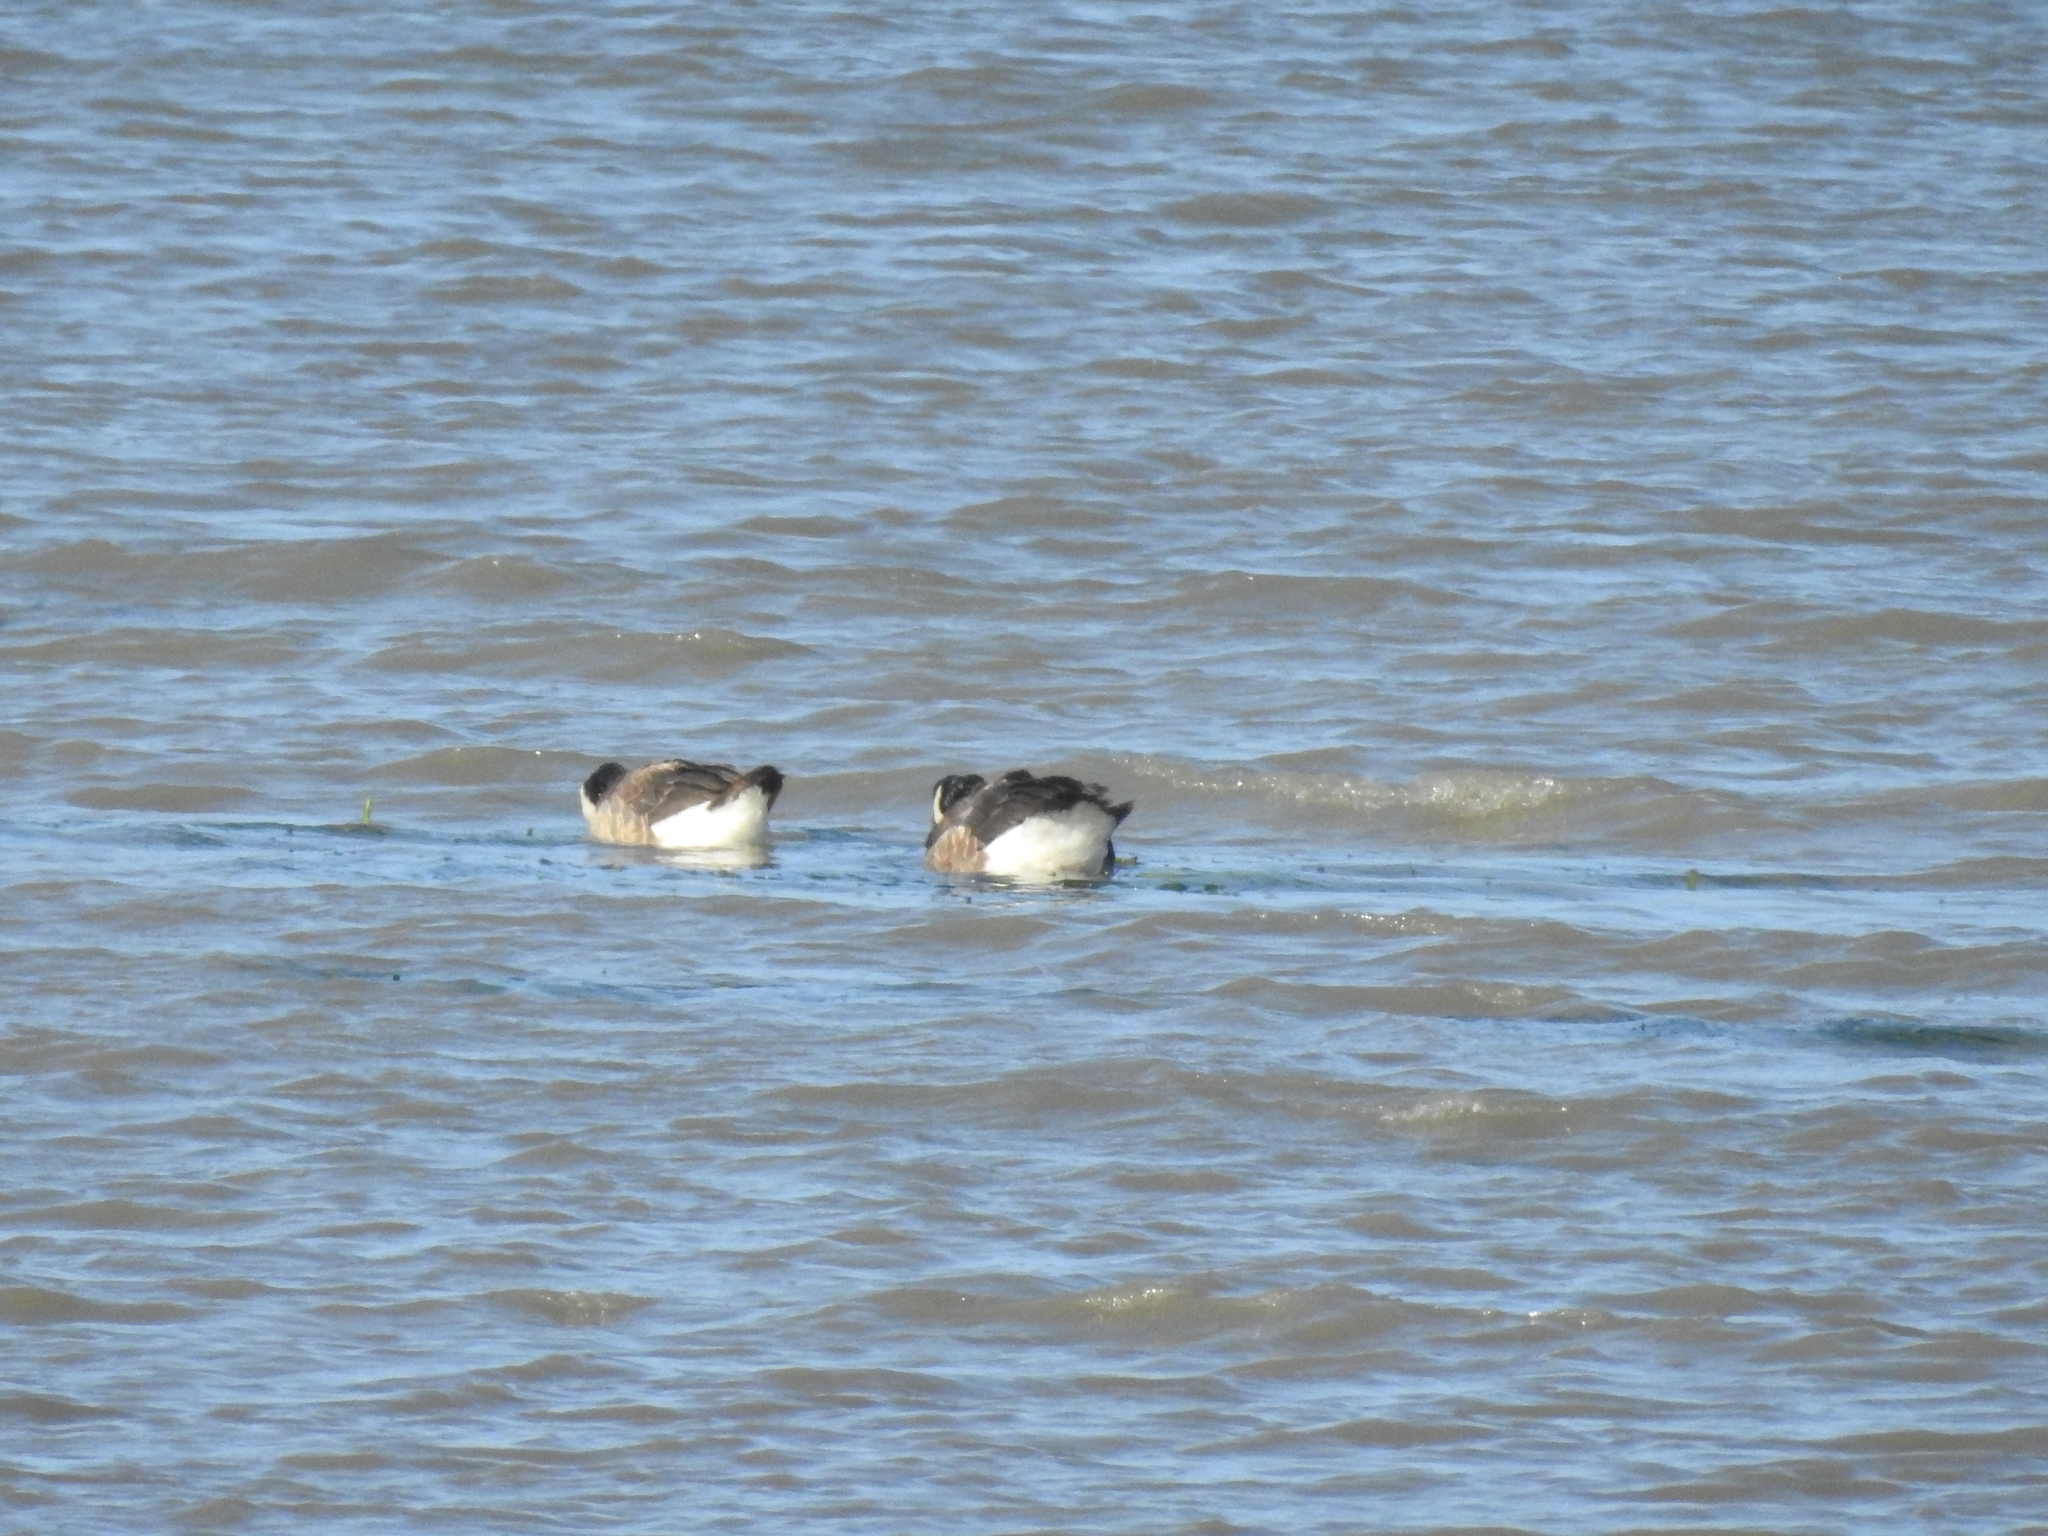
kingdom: Animalia
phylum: Chordata
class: Aves
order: Anseriformes
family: Anatidae
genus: Branta
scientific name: Branta canadensis
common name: Canada goose
